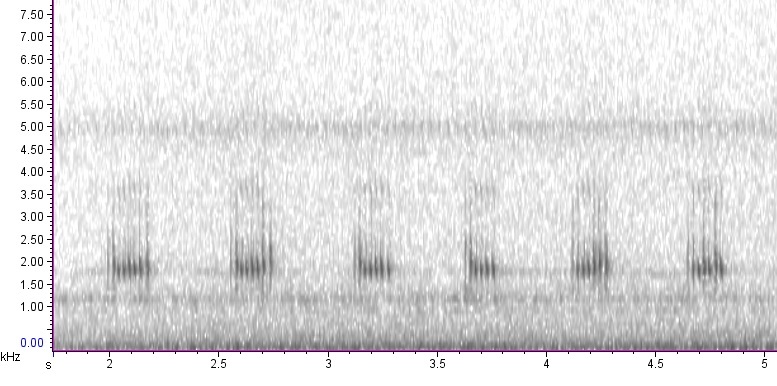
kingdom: Animalia
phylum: Arthropoda
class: Insecta
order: Orthoptera
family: Gryllotalpidae
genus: Neocurtilla
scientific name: Neocurtilla hexadactyla
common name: Northern mole cricket
